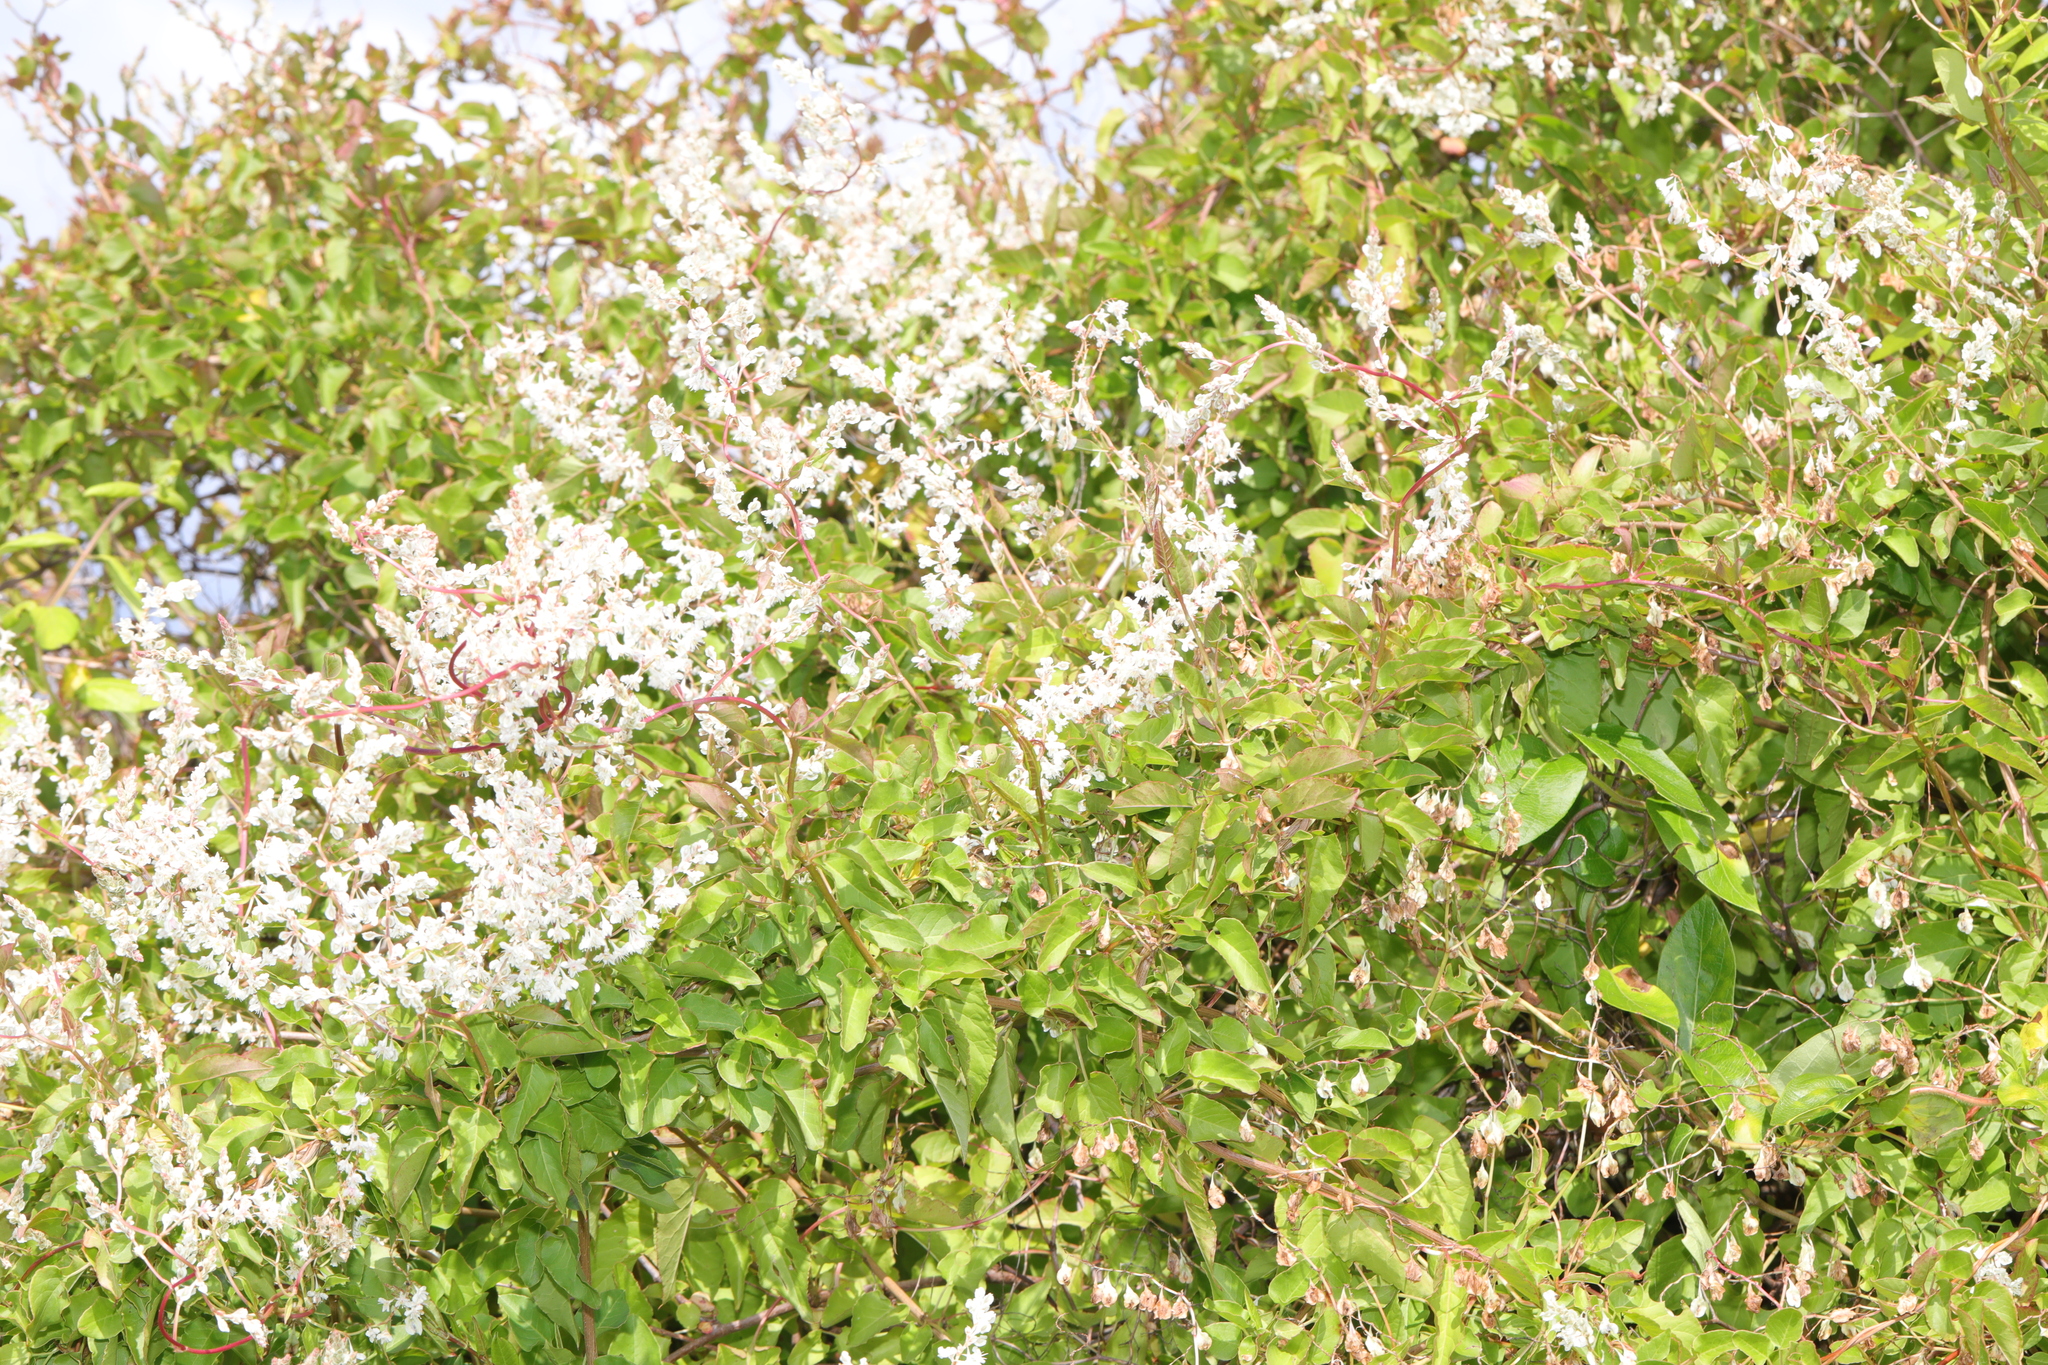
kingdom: Plantae
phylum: Tracheophyta
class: Magnoliopsida
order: Caryophyllales
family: Polygonaceae
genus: Fallopia
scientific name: Fallopia baldschuanica
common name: Russian-vine
